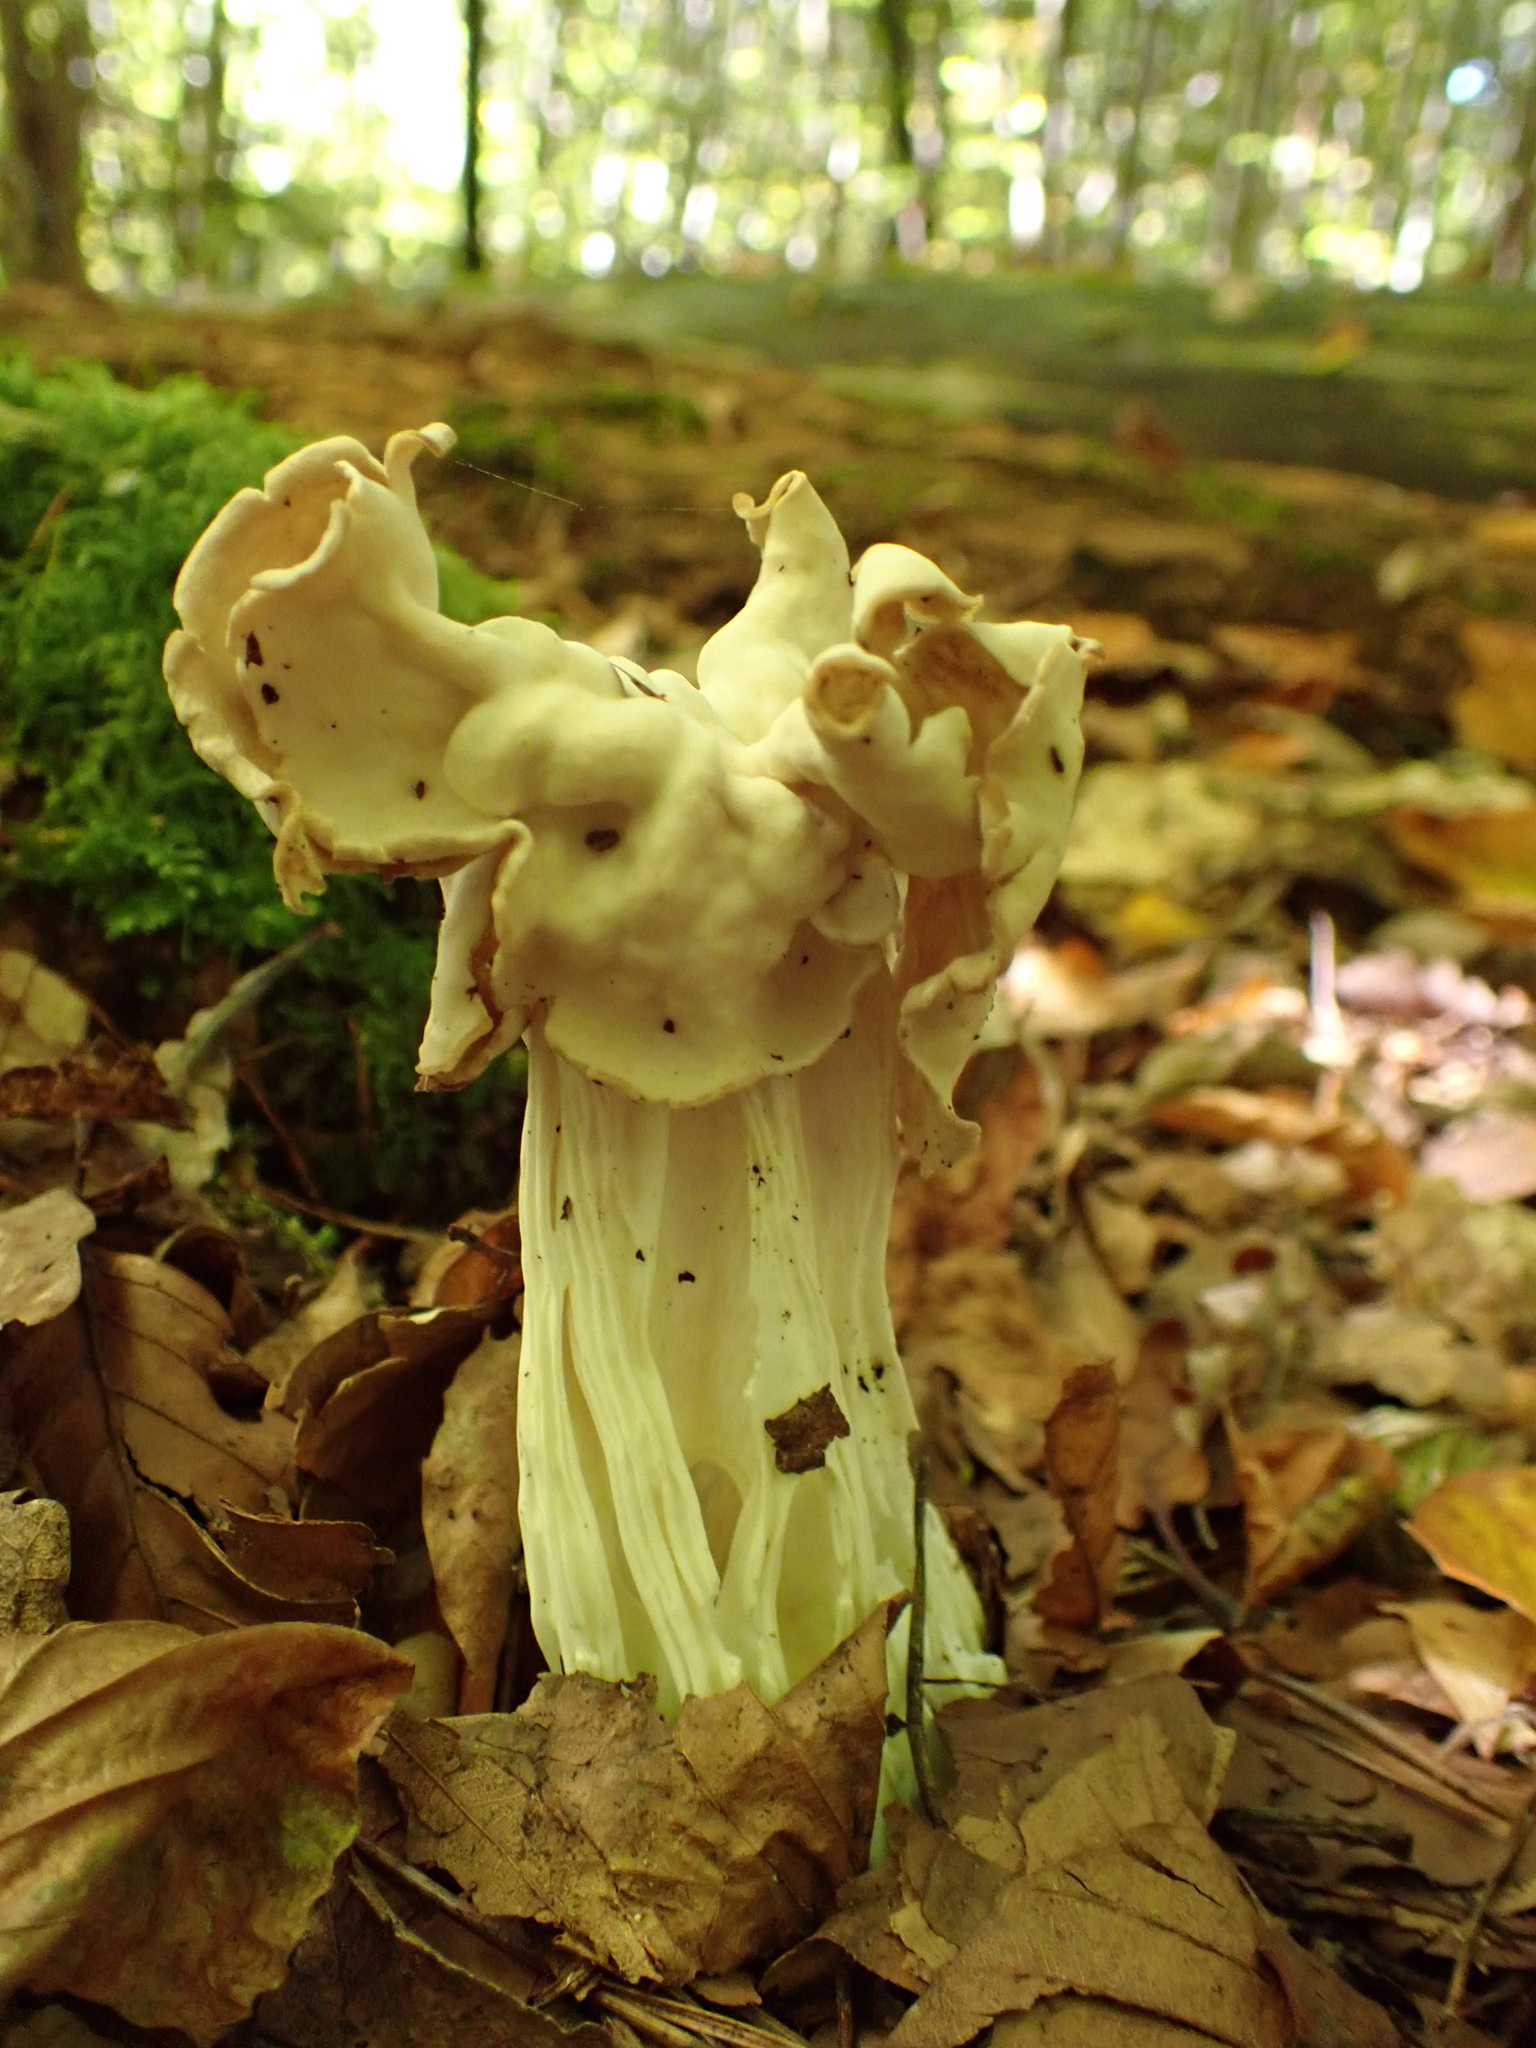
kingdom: Fungi
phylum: Ascomycota
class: Pezizomycetes
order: Pezizales
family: Helvellaceae
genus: Helvella
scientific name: Helvella crispa
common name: White saddle
